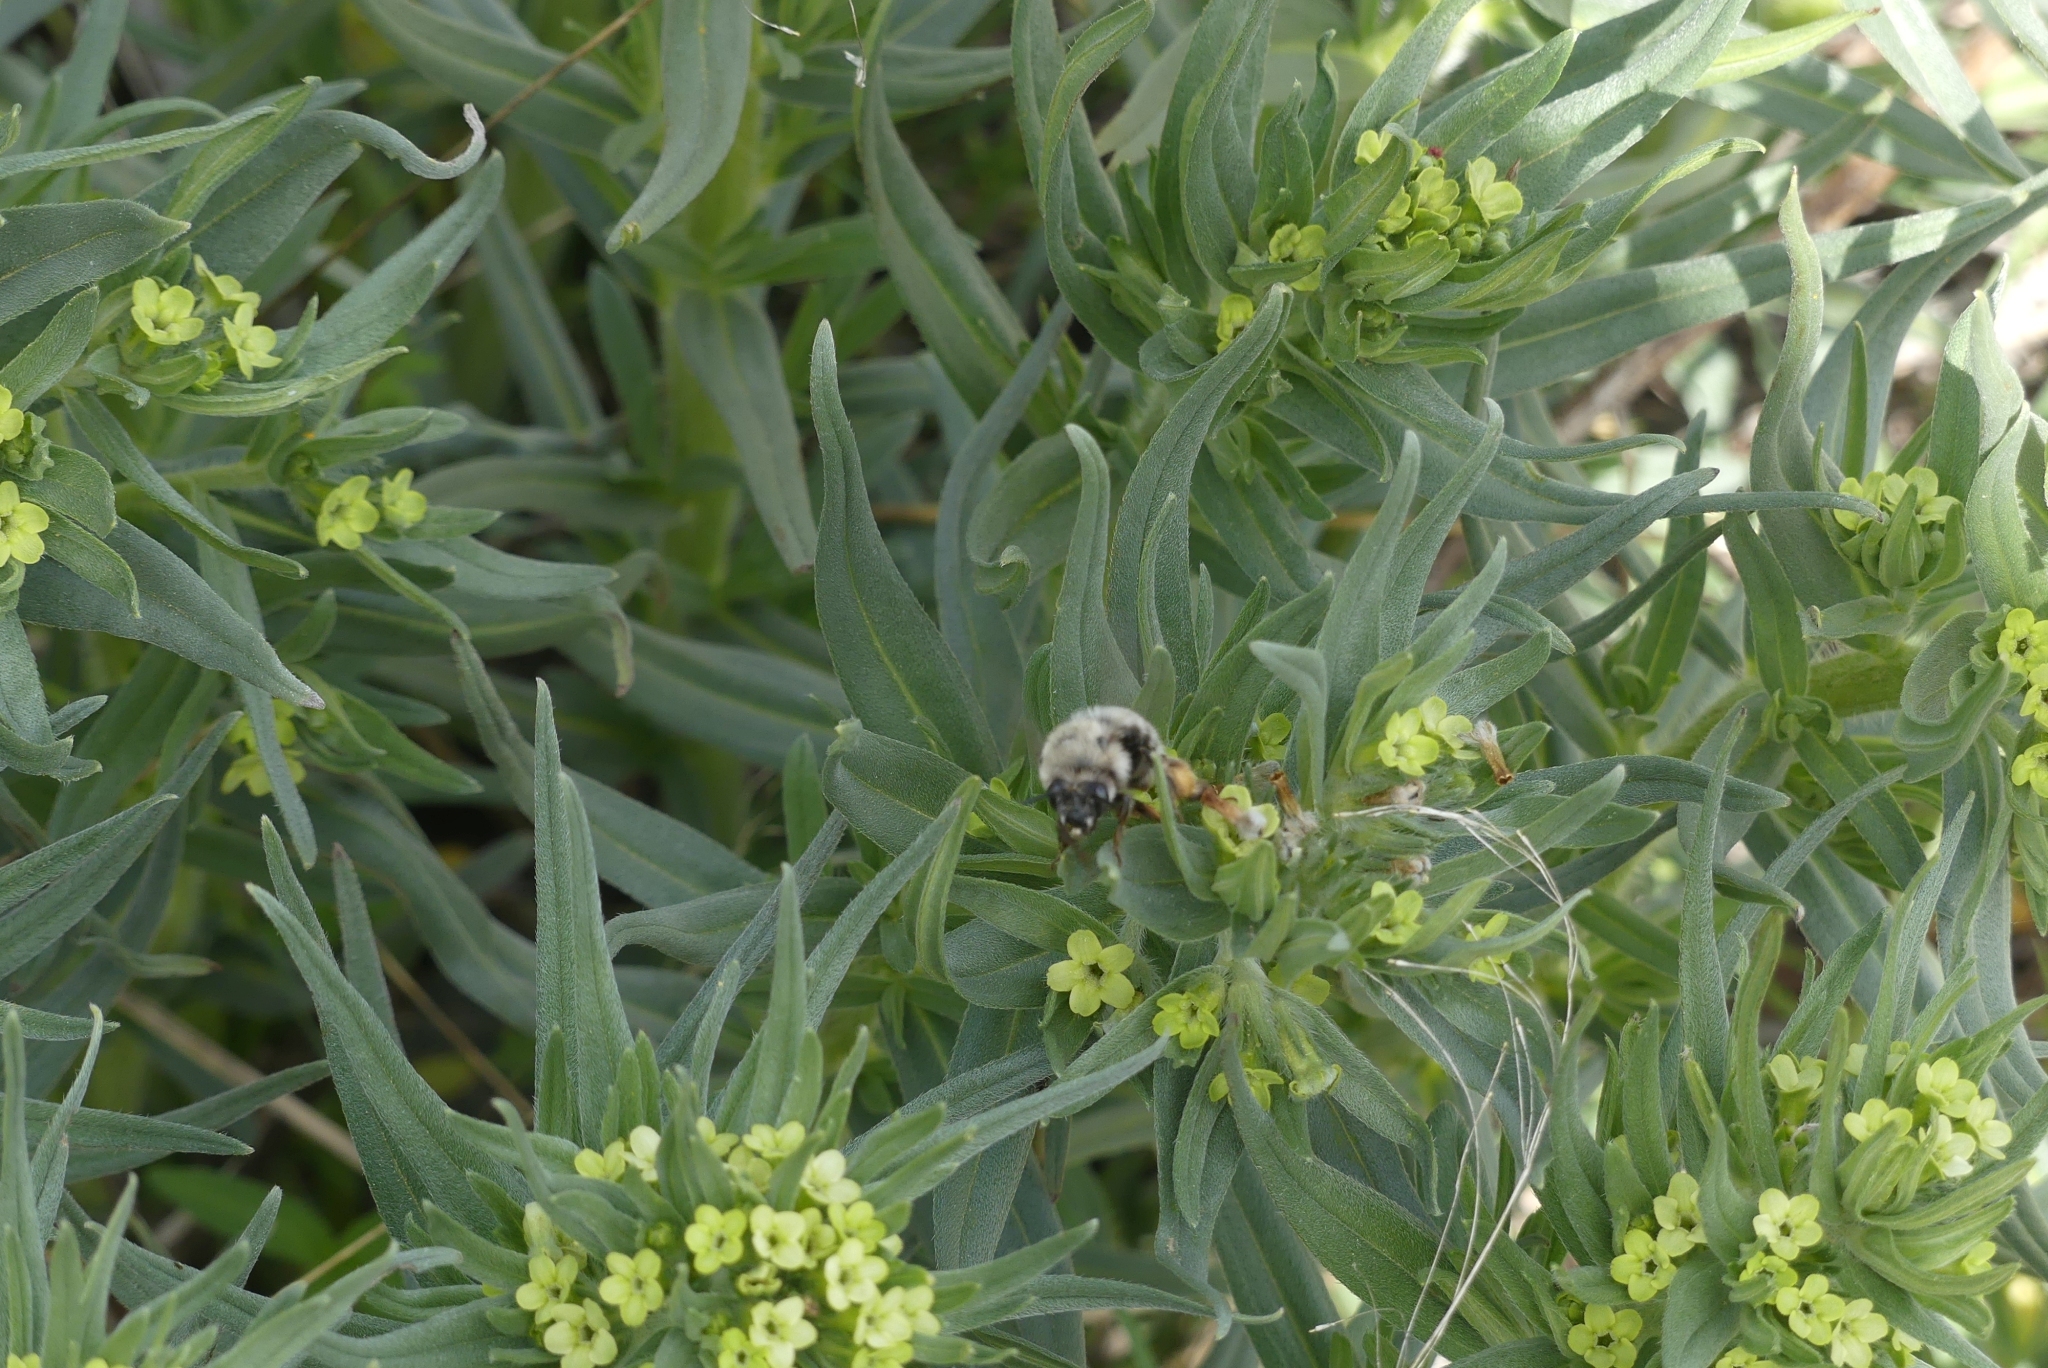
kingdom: Animalia
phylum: Arthropoda
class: Insecta
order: Hymenoptera
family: Apidae
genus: Habropoda
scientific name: Habropoda cineraria
